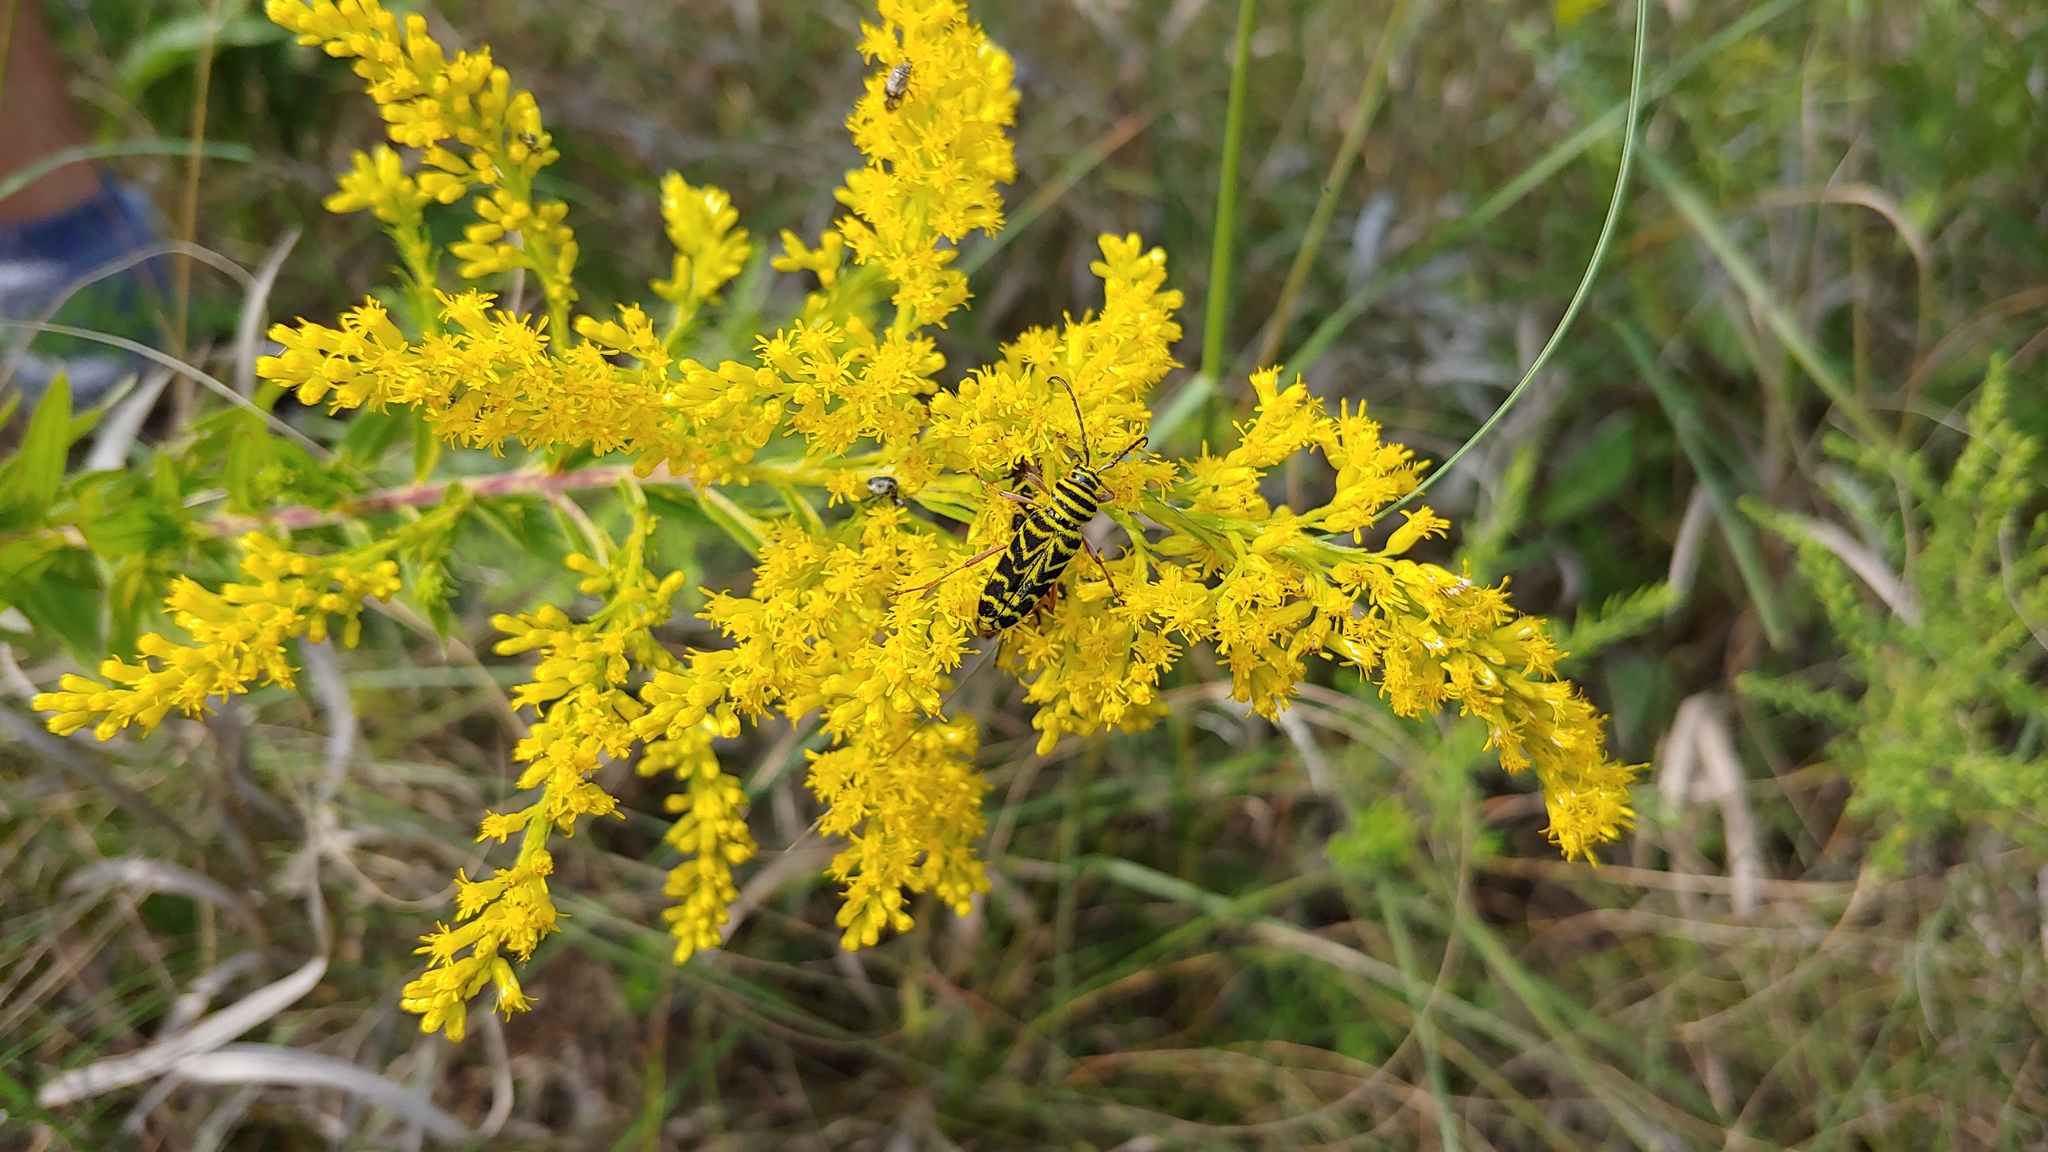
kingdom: Animalia
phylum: Arthropoda
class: Insecta
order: Coleoptera
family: Cerambycidae
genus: Megacyllene
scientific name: Megacyllene robiniae
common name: Locust borer
